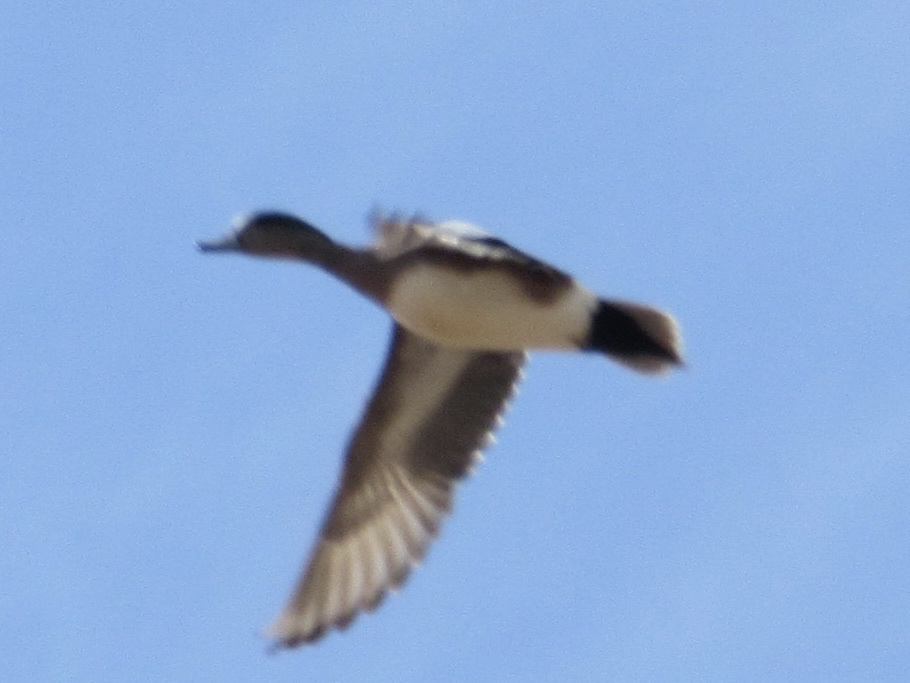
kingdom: Animalia
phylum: Chordata
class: Aves
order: Anseriformes
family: Anatidae
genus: Mareca
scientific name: Mareca americana
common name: American wigeon
